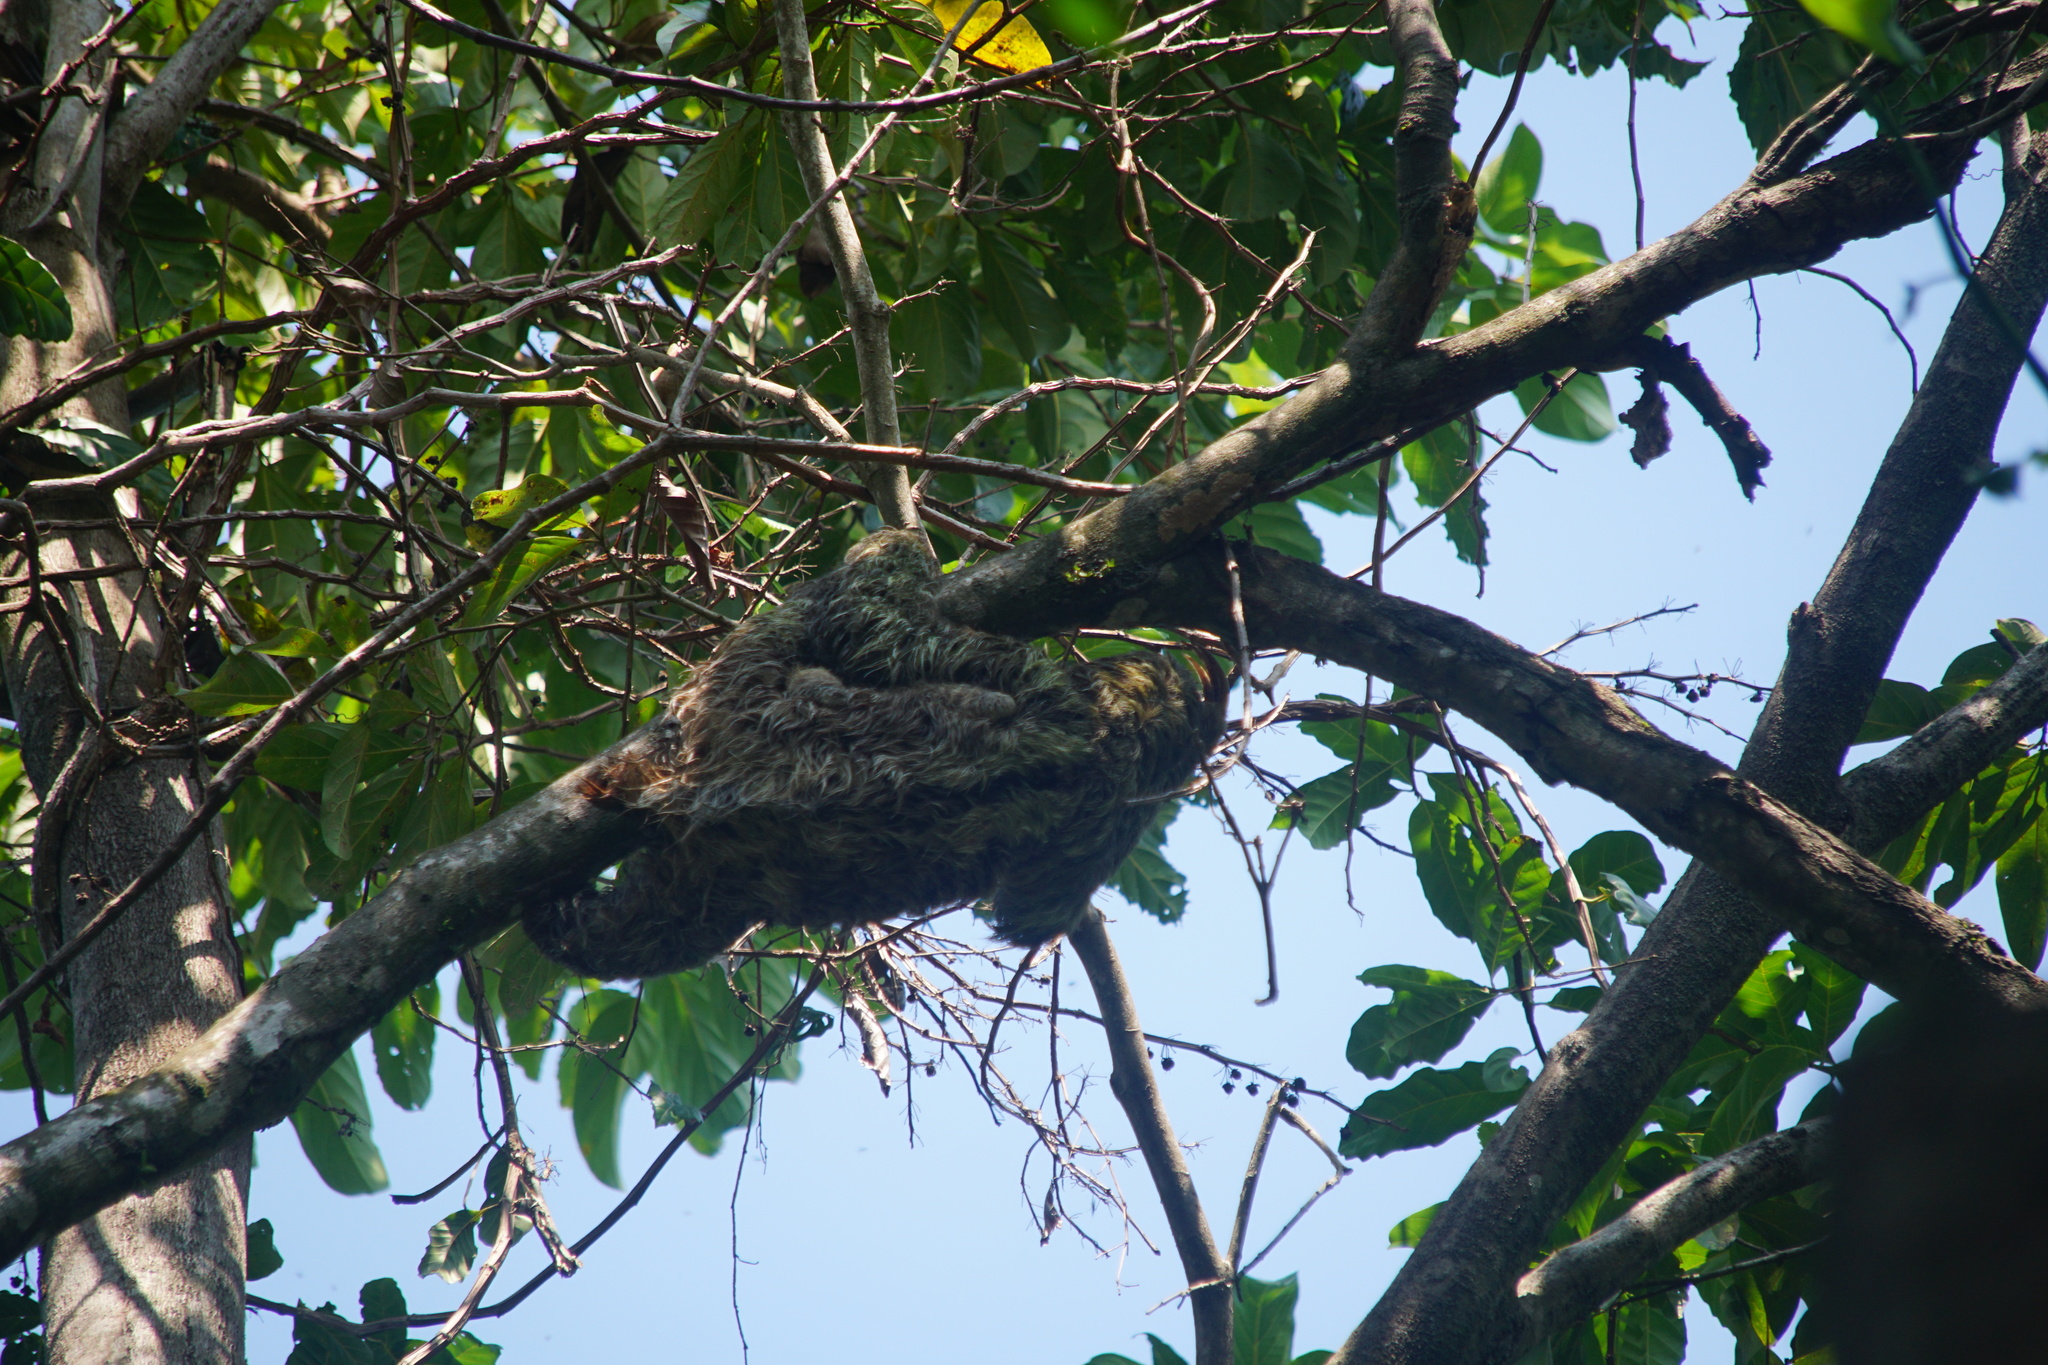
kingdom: Animalia
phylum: Chordata
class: Mammalia
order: Pilosa
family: Bradypodidae
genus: Bradypus
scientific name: Bradypus variegatus
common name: Brown-throated three-toed sloth
